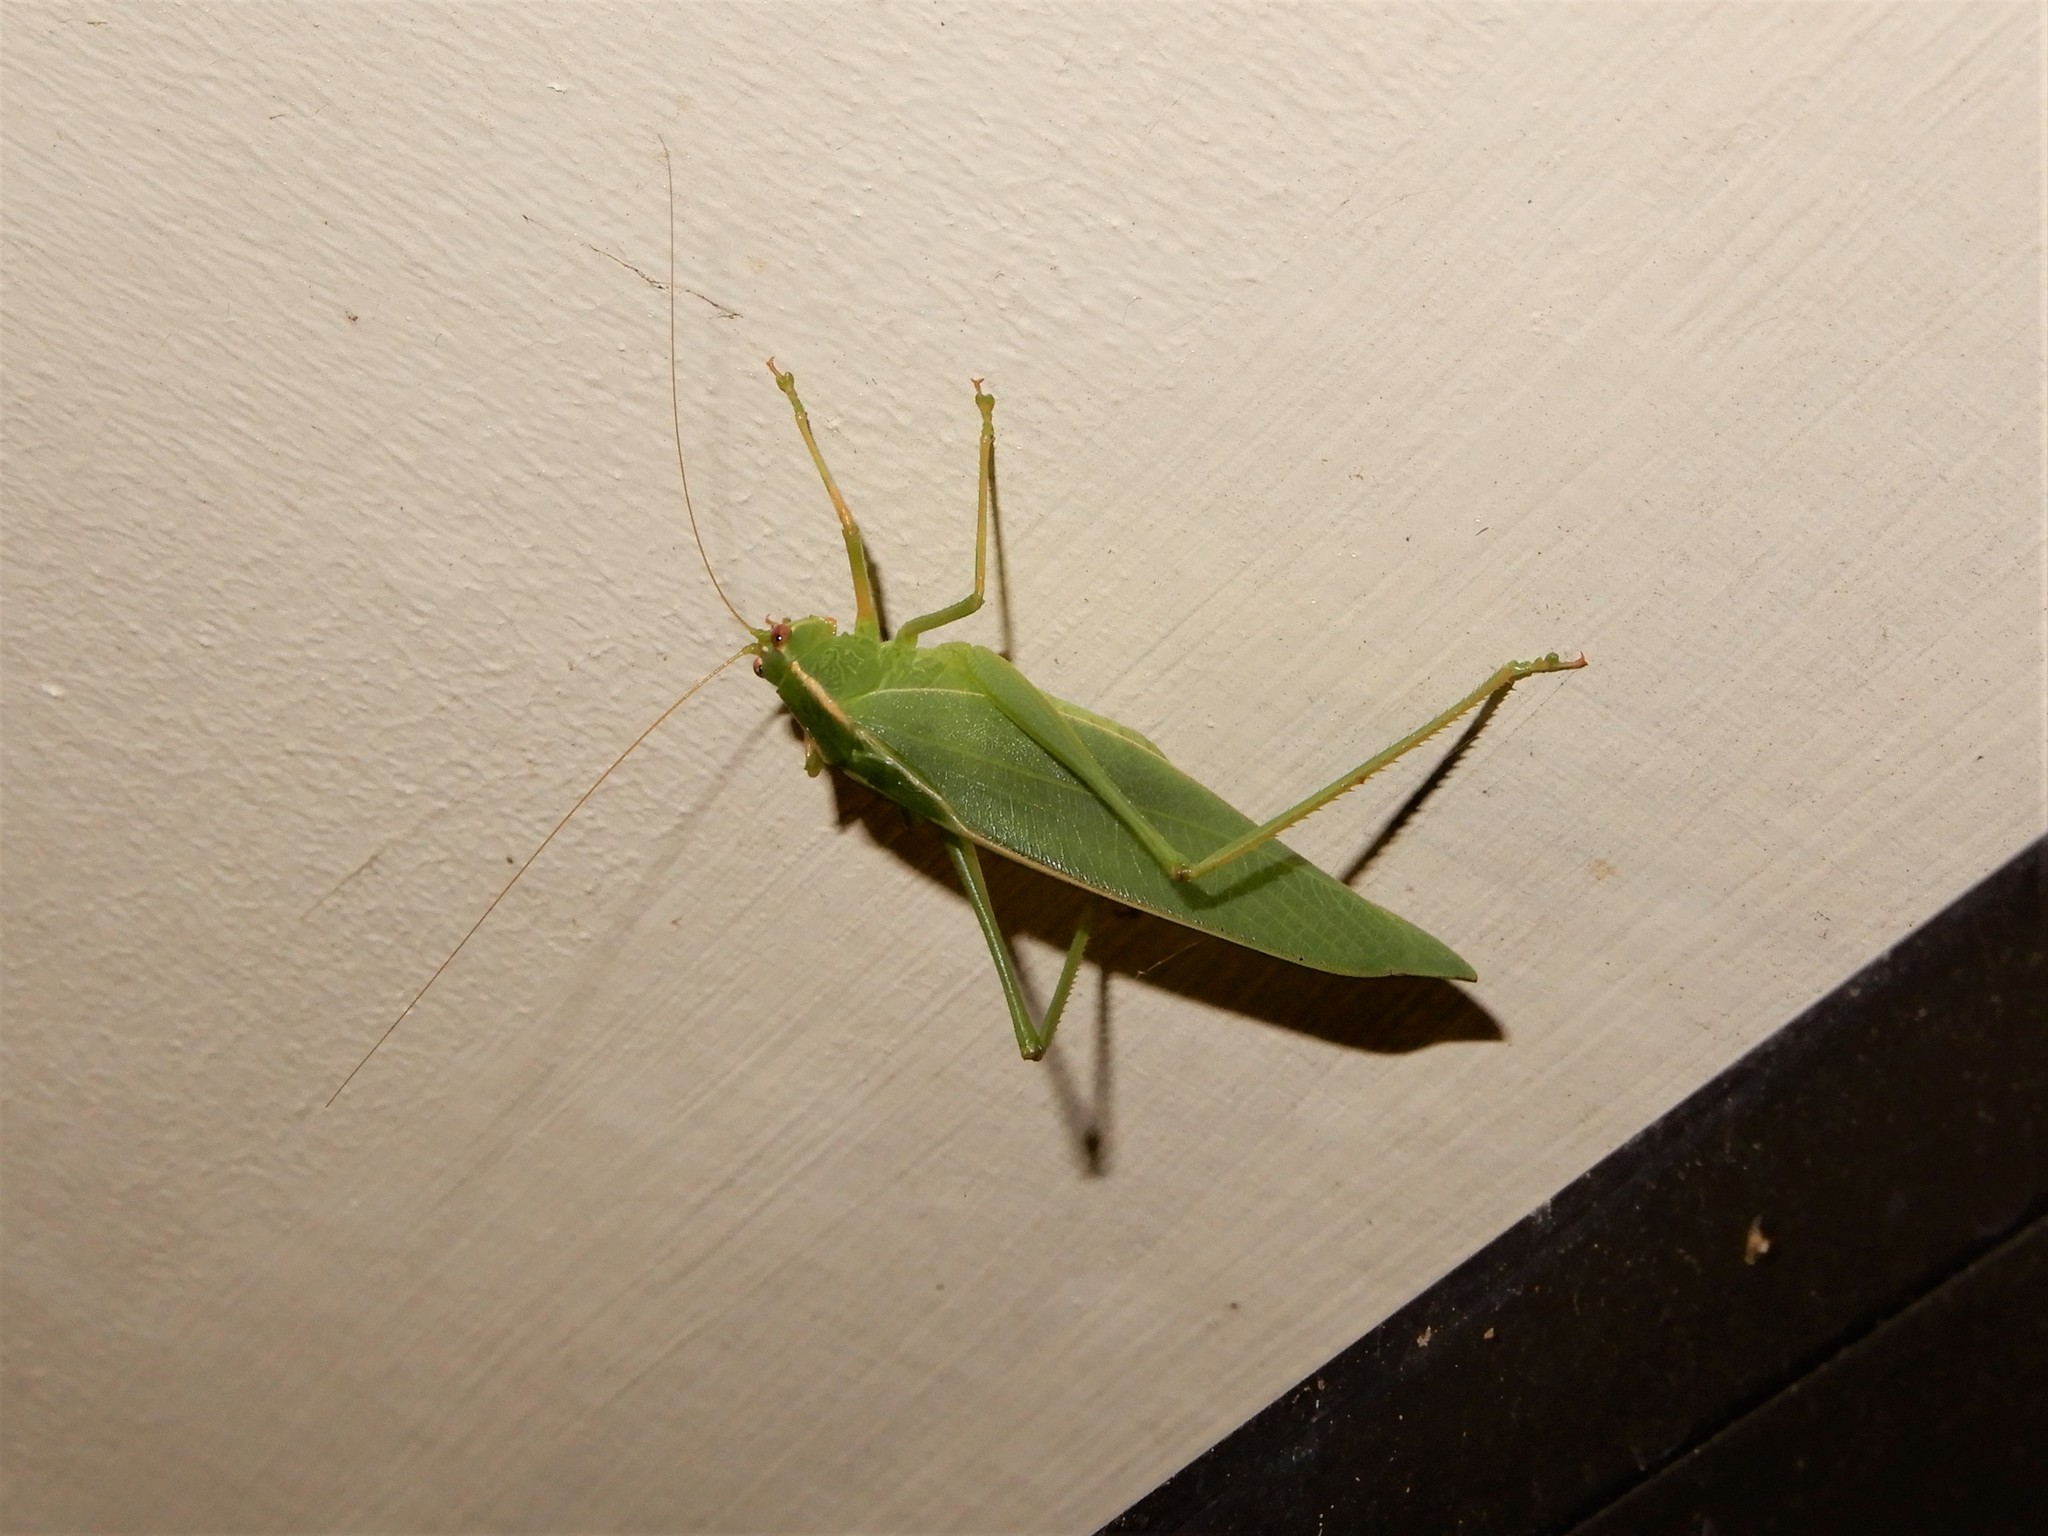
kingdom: Animalia
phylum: Arthropoda
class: Insecta
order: Orthoptera
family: Tettigoniidae
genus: Caedicia
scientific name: Caedicia simplex
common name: Common garden katydid
